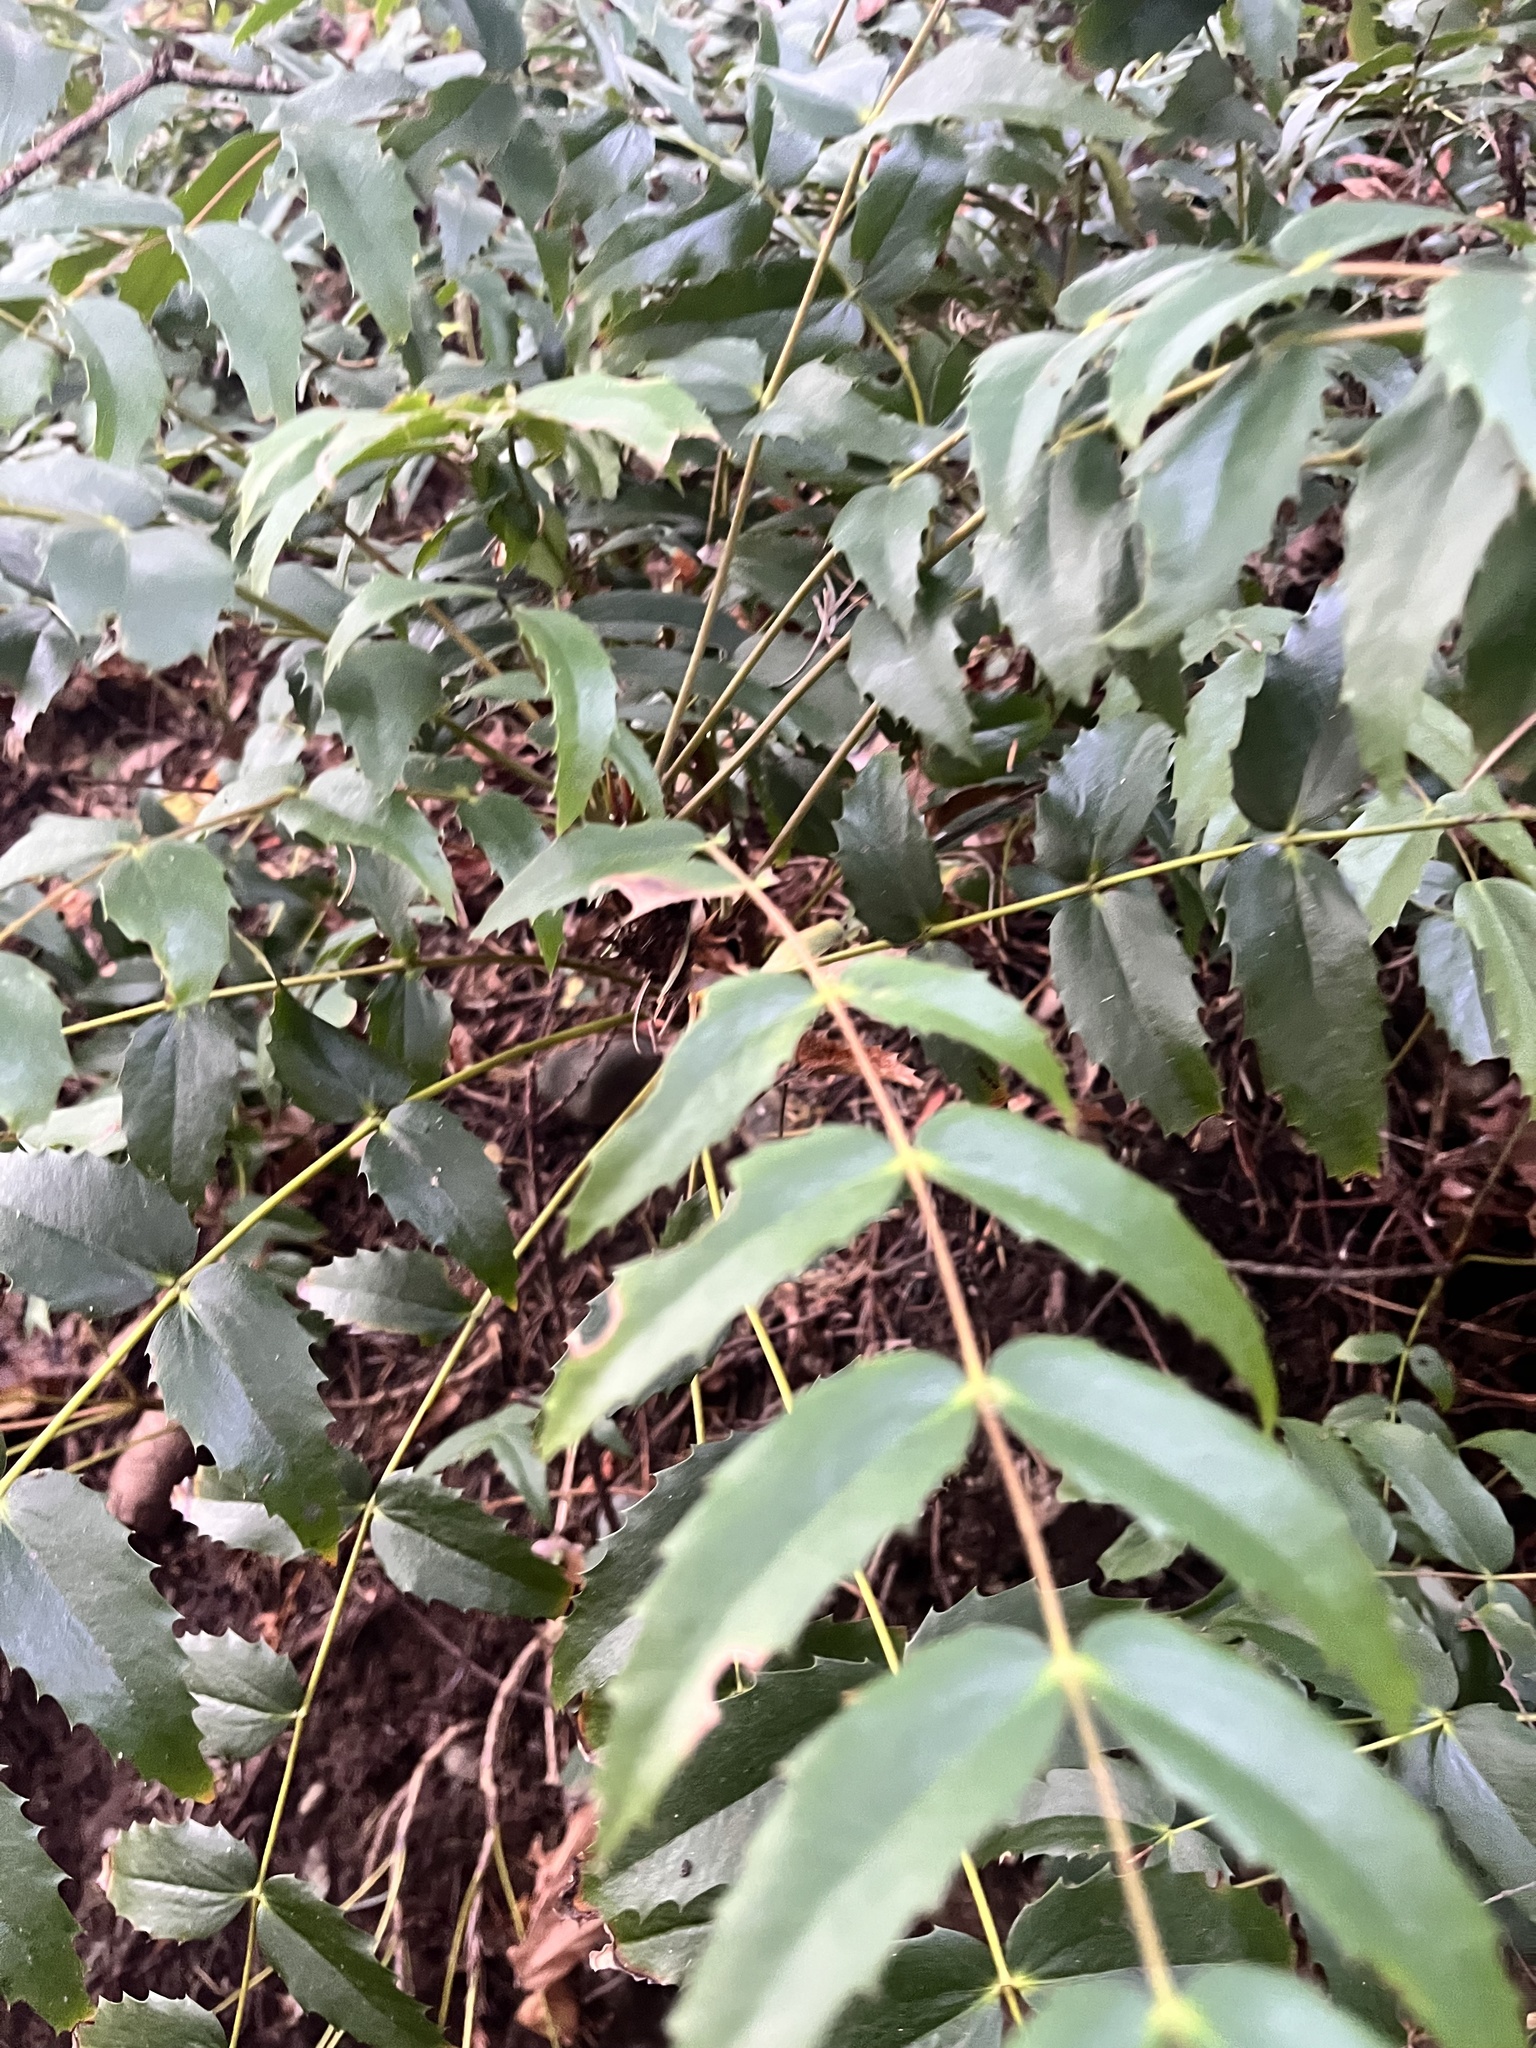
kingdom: Plantae
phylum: Tracheophyta
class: Magnoliopsida
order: Ranunculales
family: Berberidaceae
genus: Mahonia
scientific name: Mahonia nervosa
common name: Cascade oregon-grape
